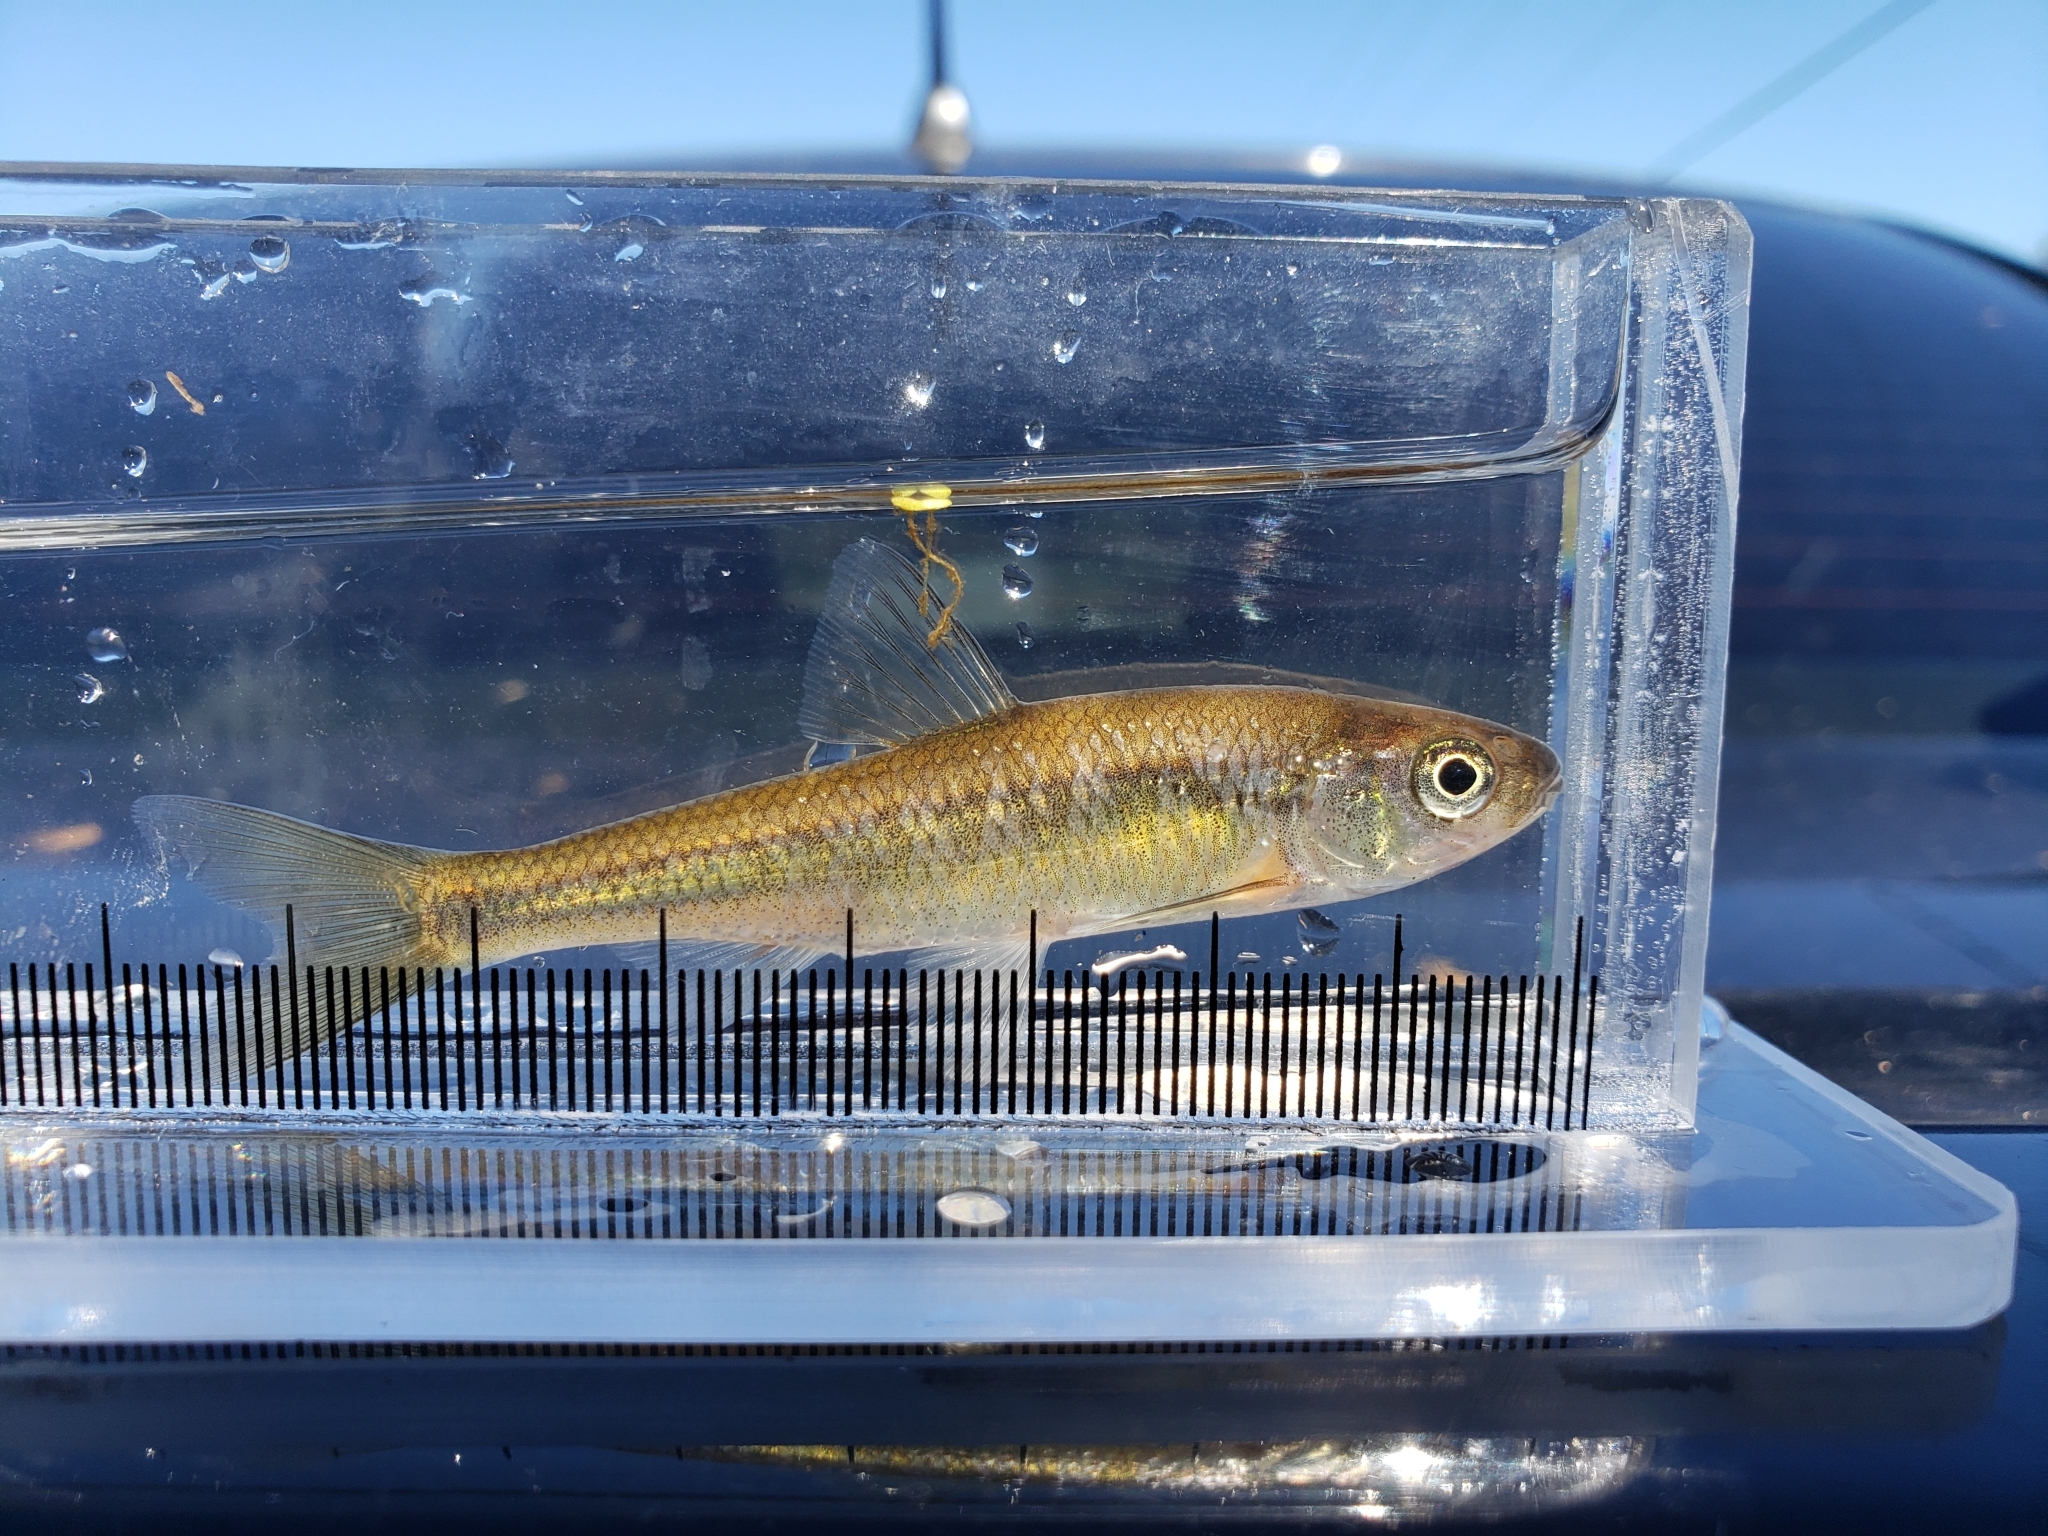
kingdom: Animalia
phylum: Chordata
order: Cypriniformes
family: Cyprinidae
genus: Luxilus
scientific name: Luxilus cornutus
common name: Common shiner
